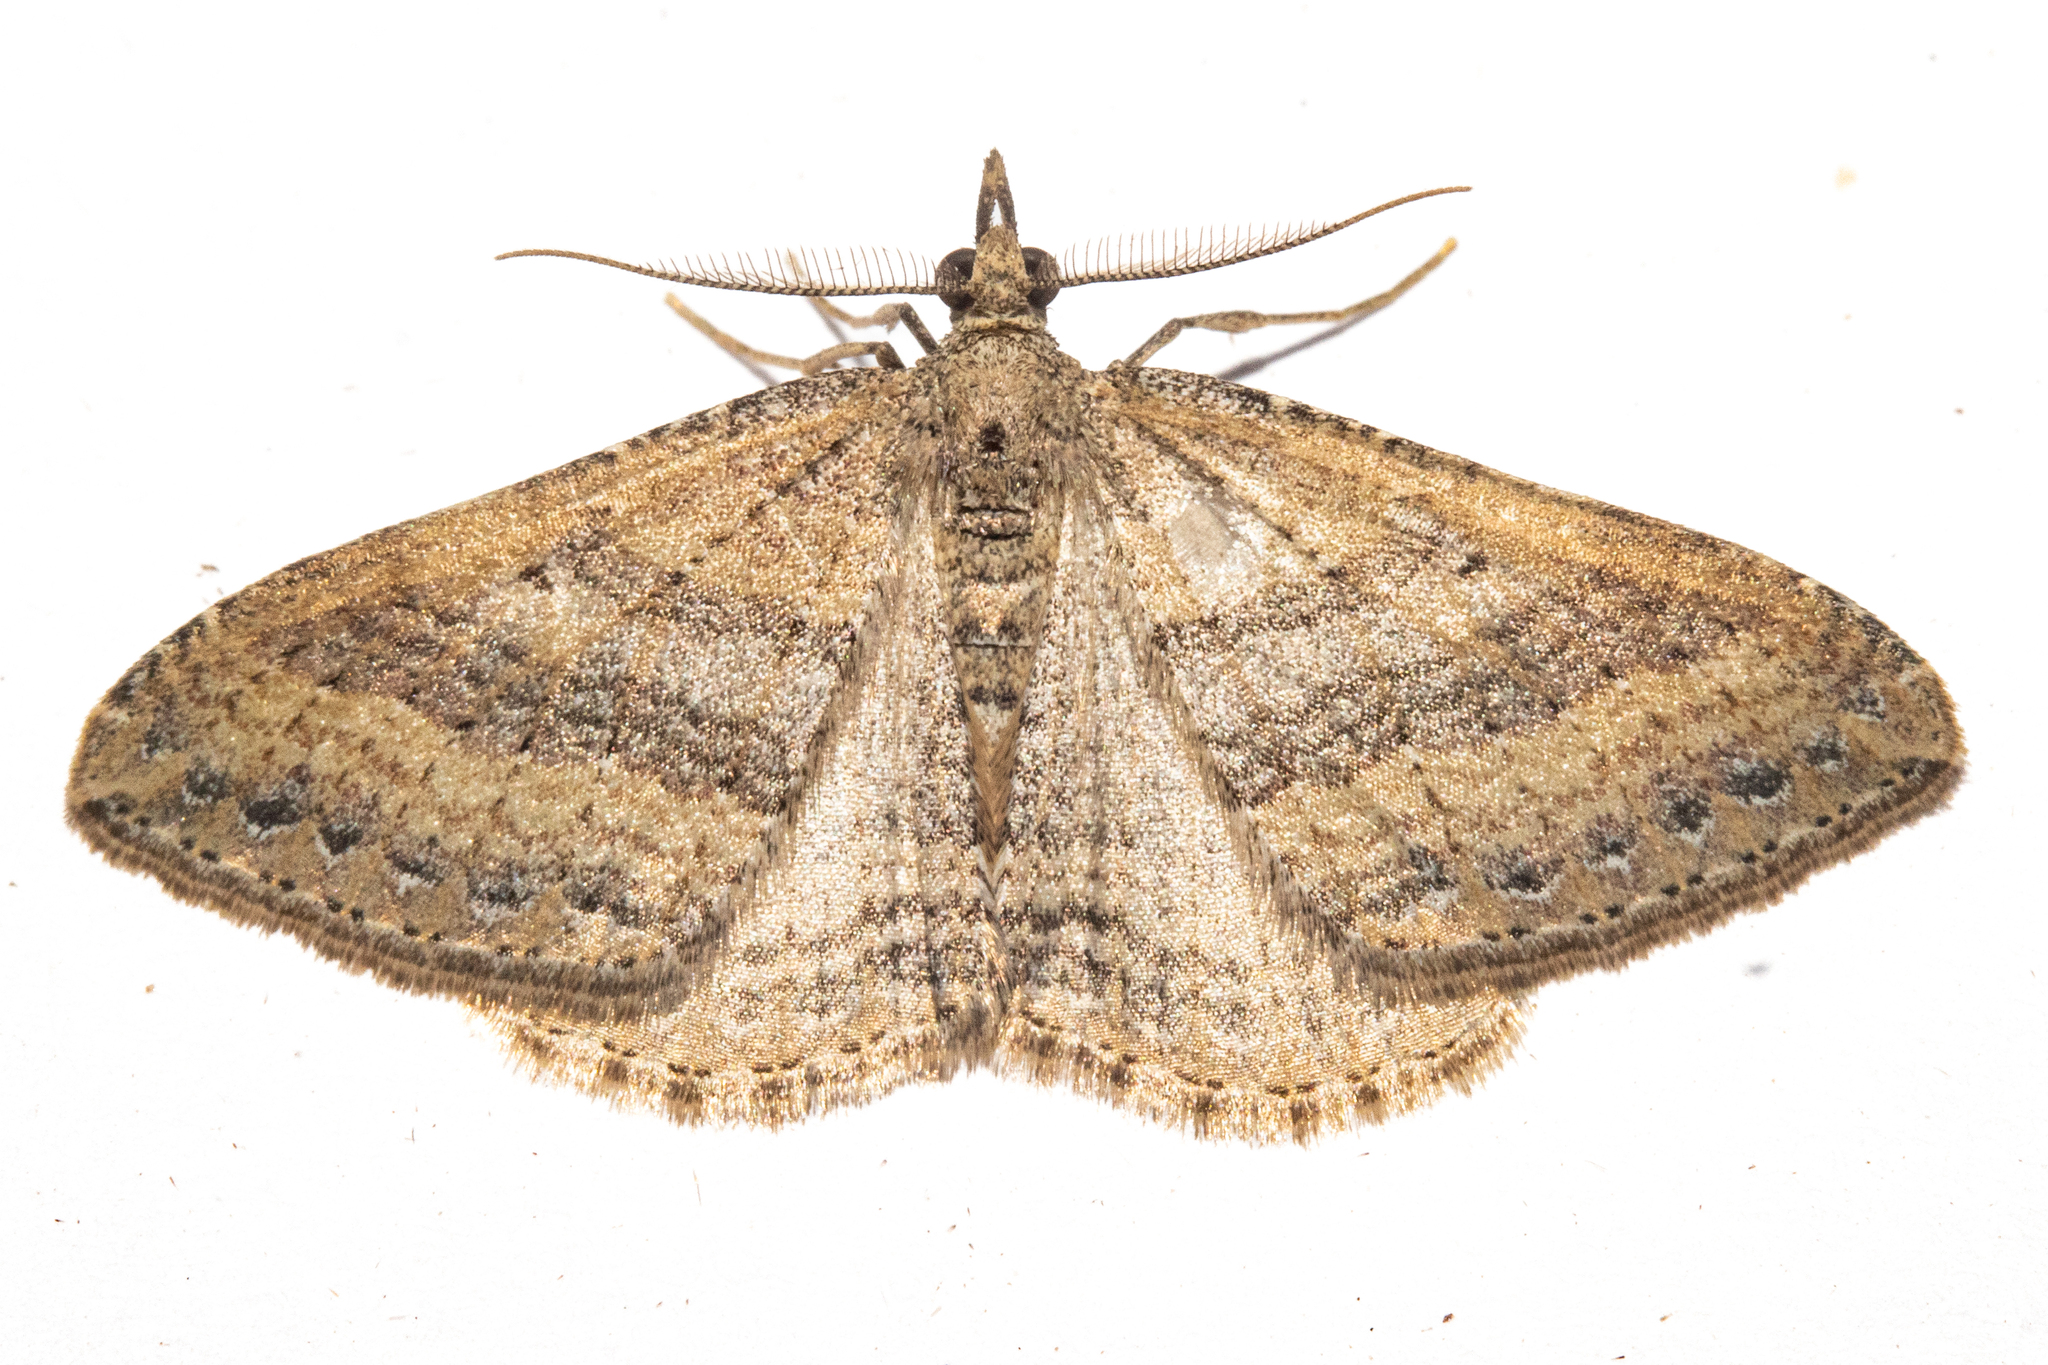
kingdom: Animalia
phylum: Arthropoda
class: Insecta
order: Lepidoptera
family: Geometridae
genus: Epyaxa
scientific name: Epyaxa venipunctata
